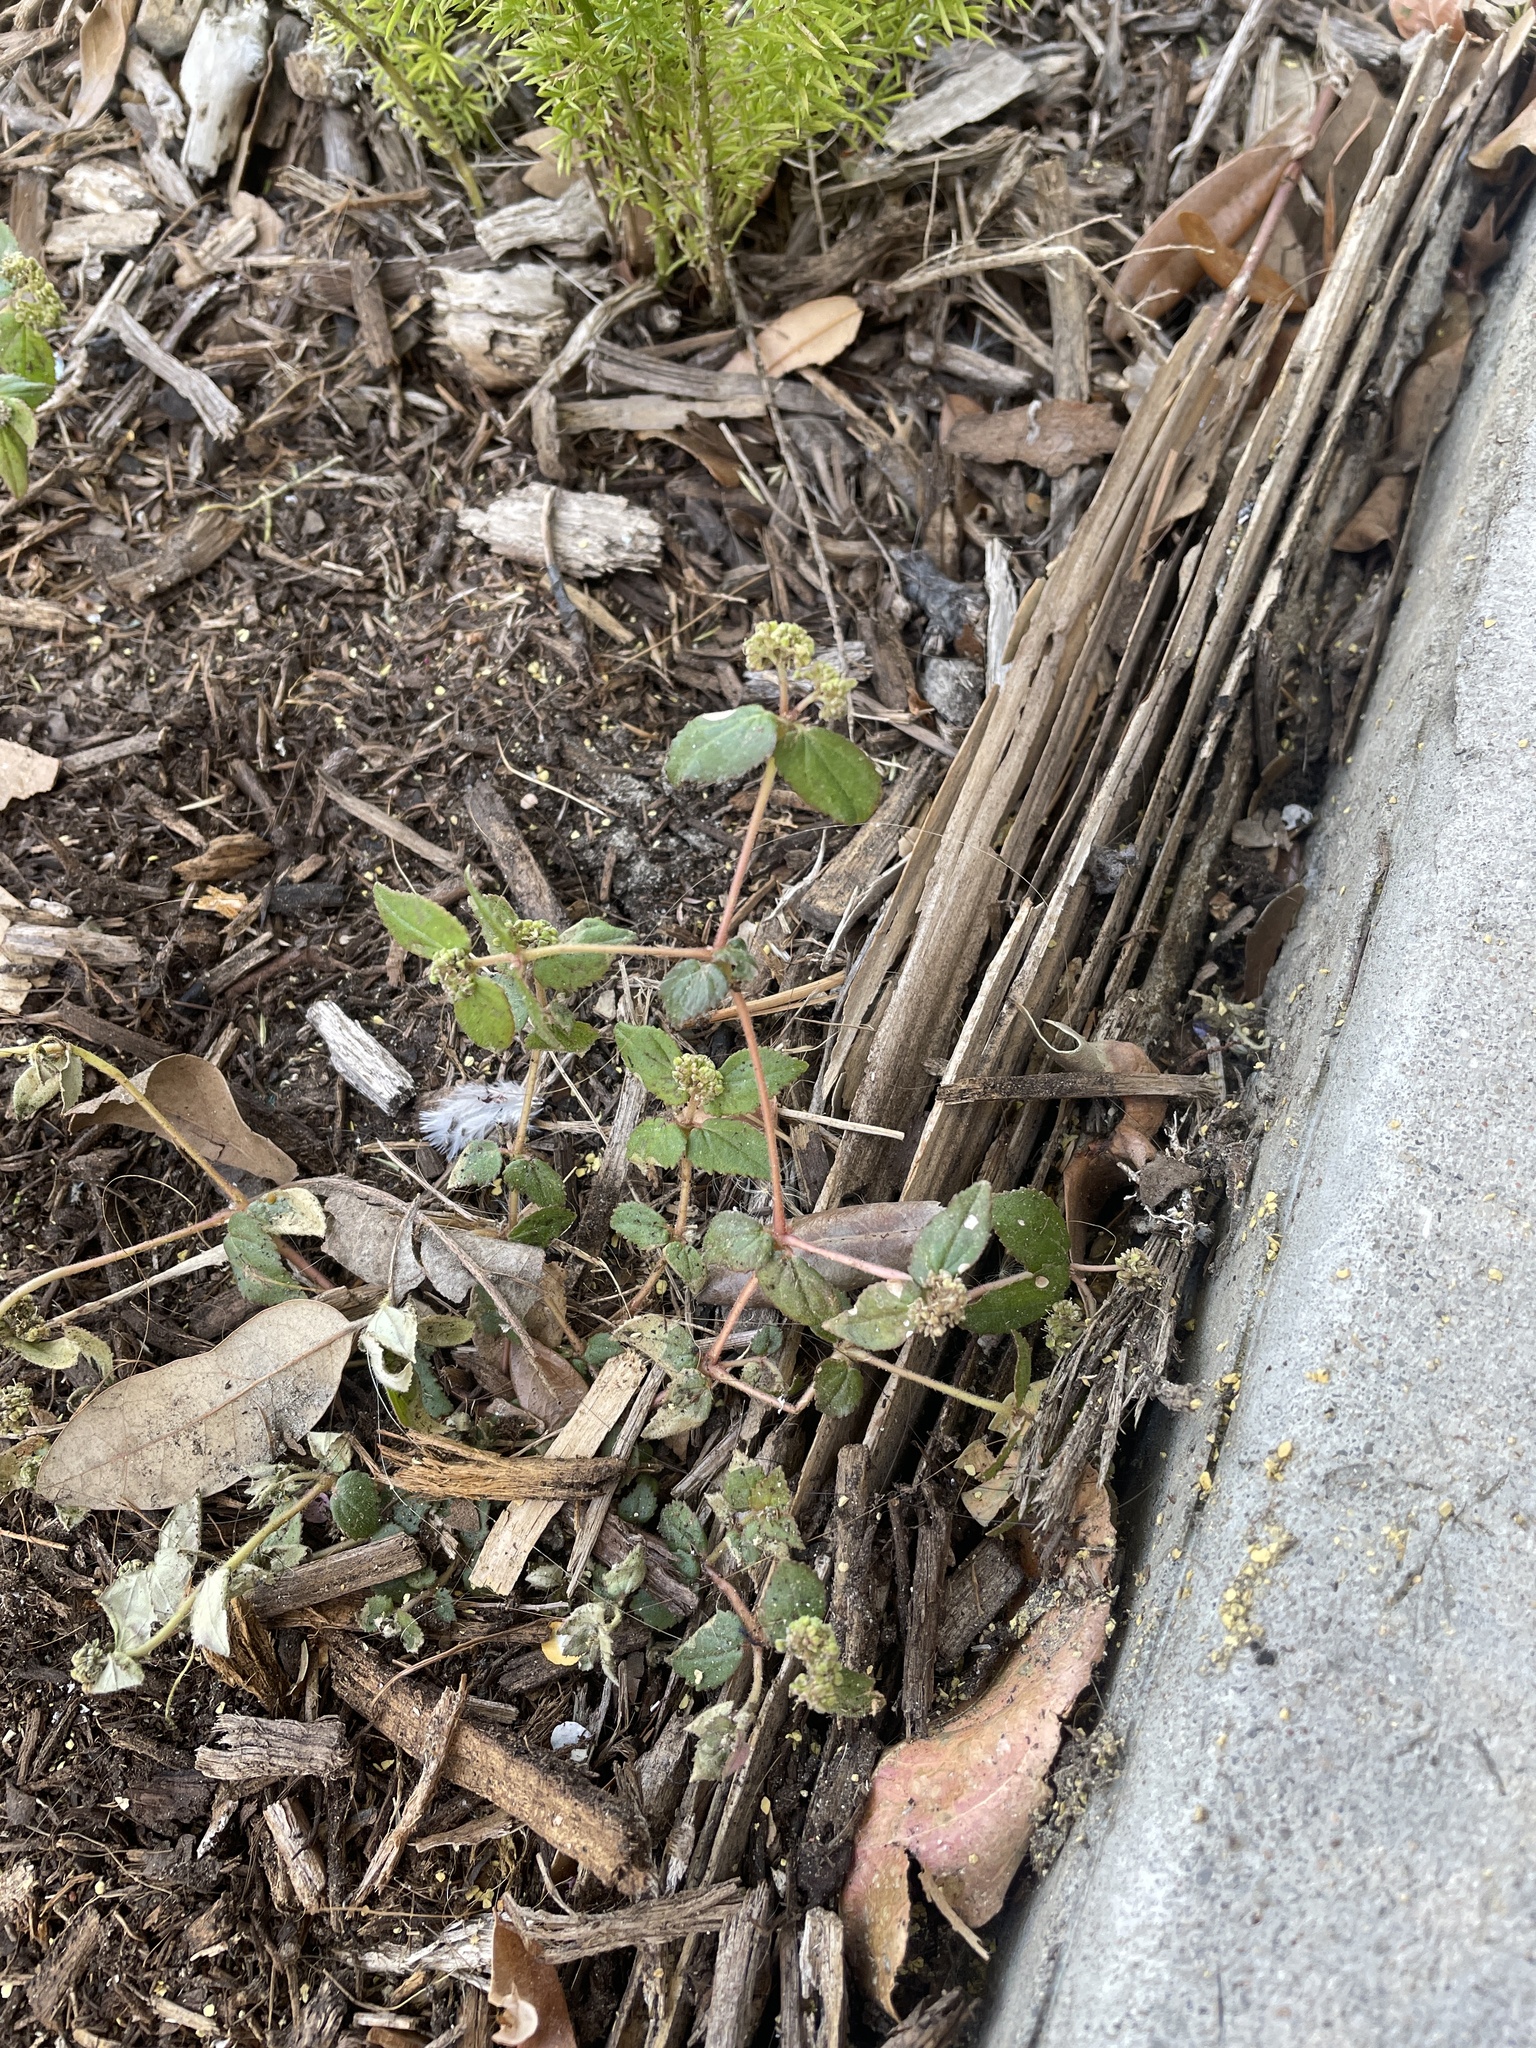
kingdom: Plantae
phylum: Tracheophyta
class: Magnoliopsida
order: Malpighiales
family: Euphorbiaceae
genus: Euphorbia
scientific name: Euphorbia ophthalmica
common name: Florida hammock sandmat
